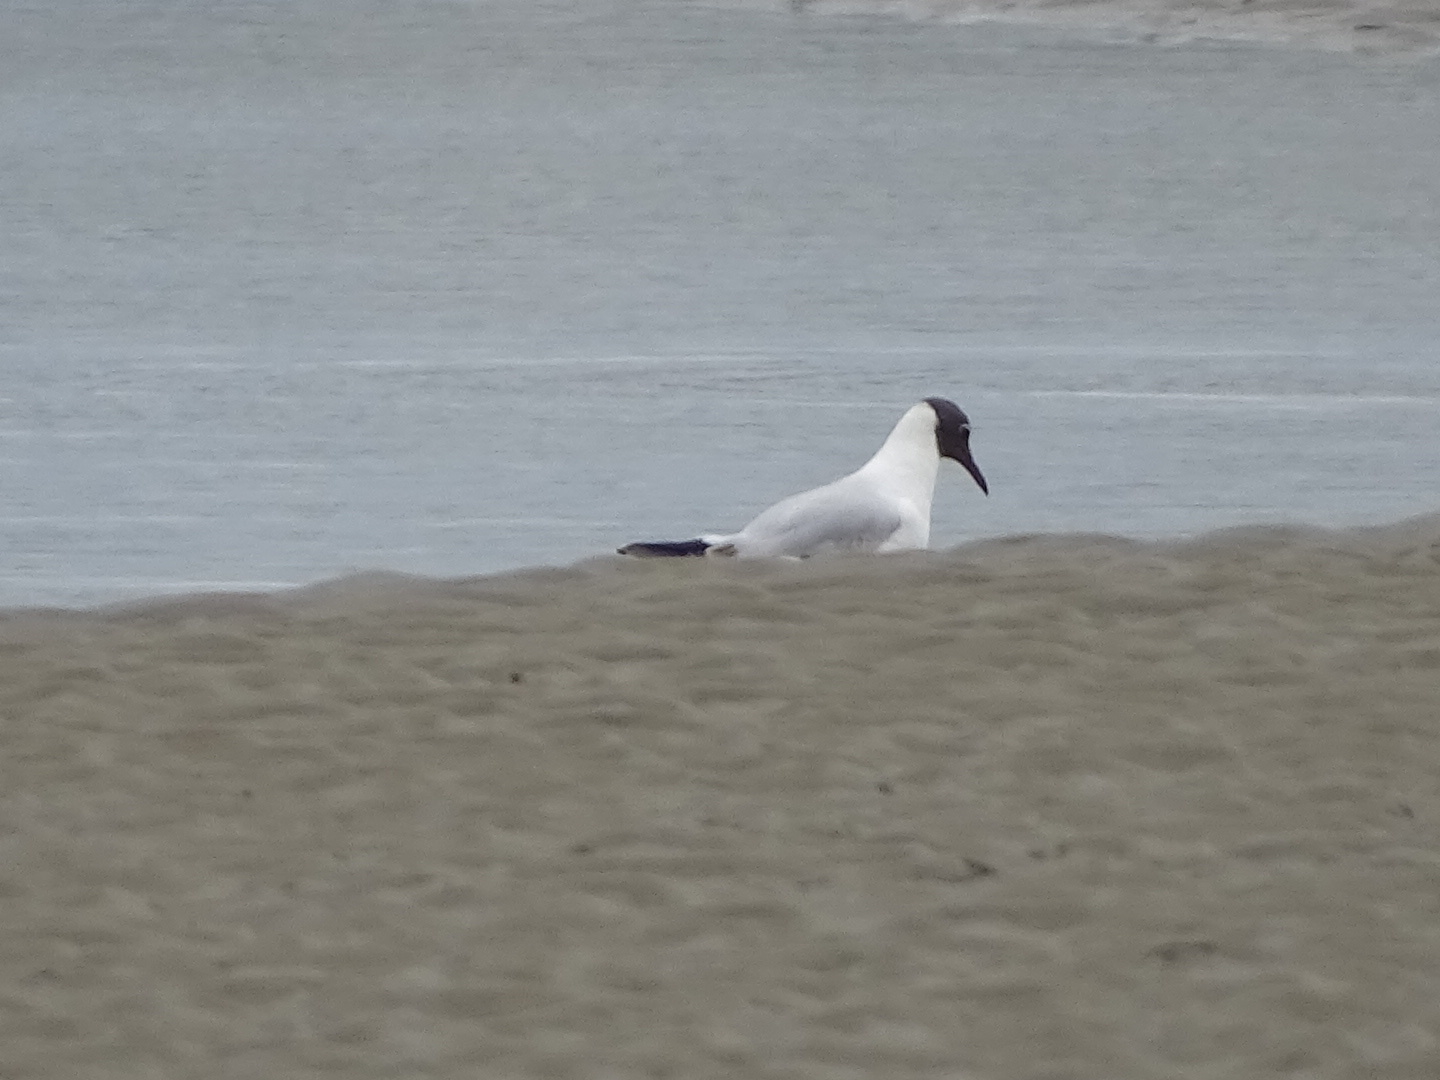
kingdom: Animalia
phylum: Chordata
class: Aves
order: Charadriiformes
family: Laridae
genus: Chroicocephalus
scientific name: Chroicocephalus ridibundus
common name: Black-headed gull
